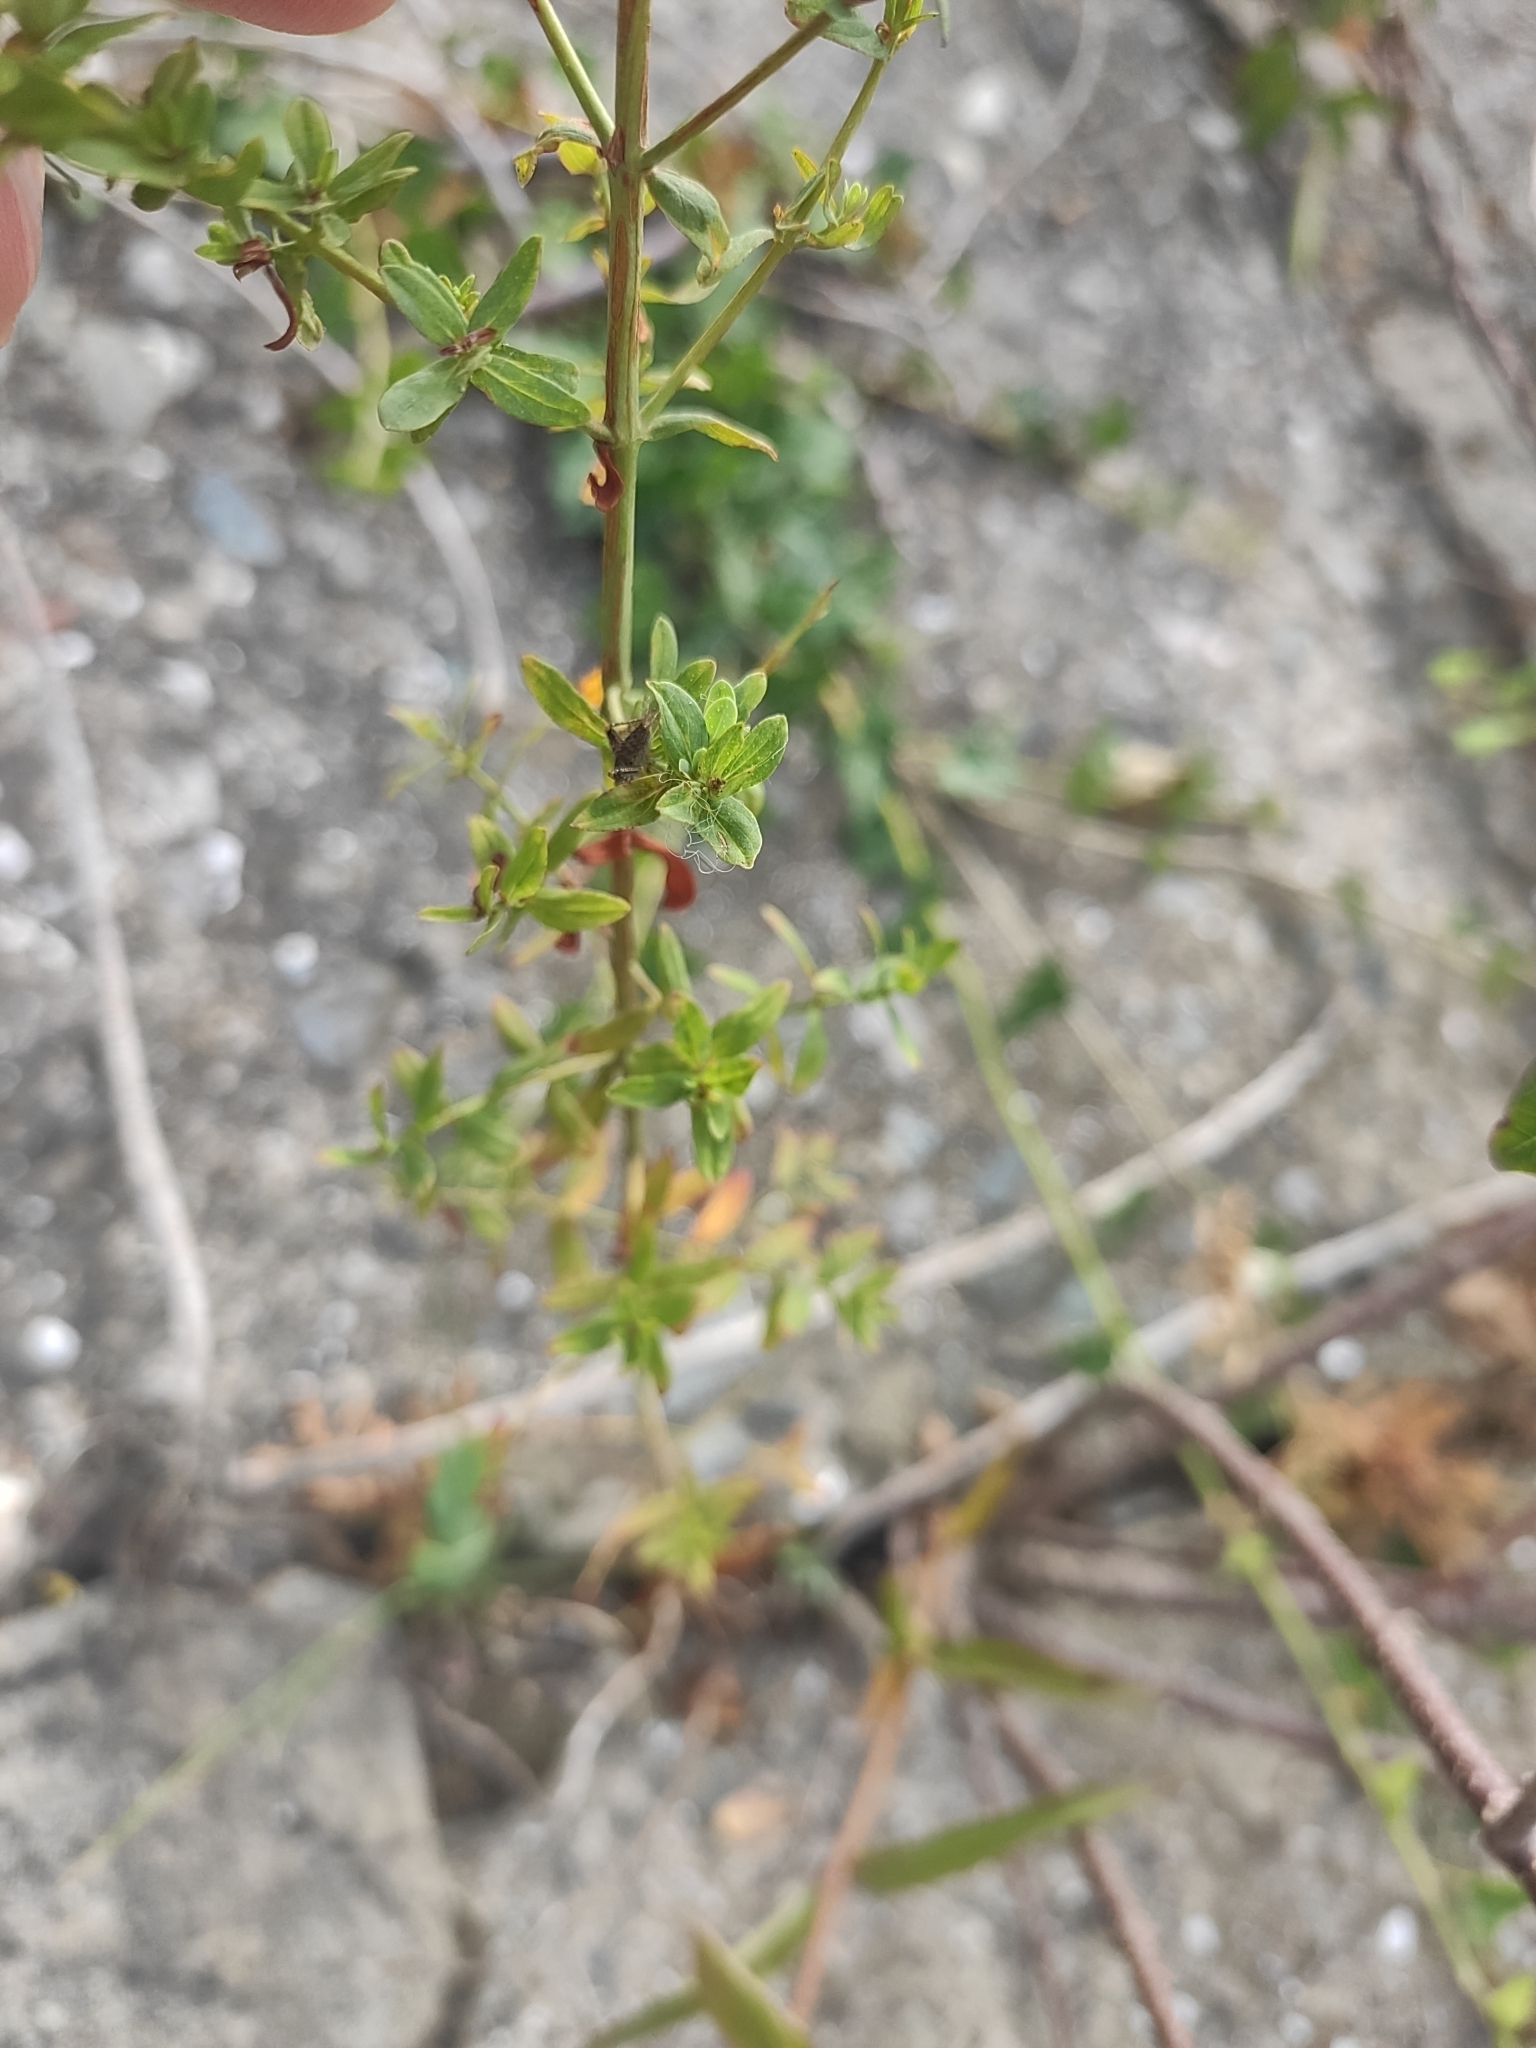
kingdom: Plantae
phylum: Tracheophyta
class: Magnoliopsida
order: Malpighiales
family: Hypericaceae
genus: Hypericum
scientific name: Hypericum perforatum
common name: Common st. johnswort
